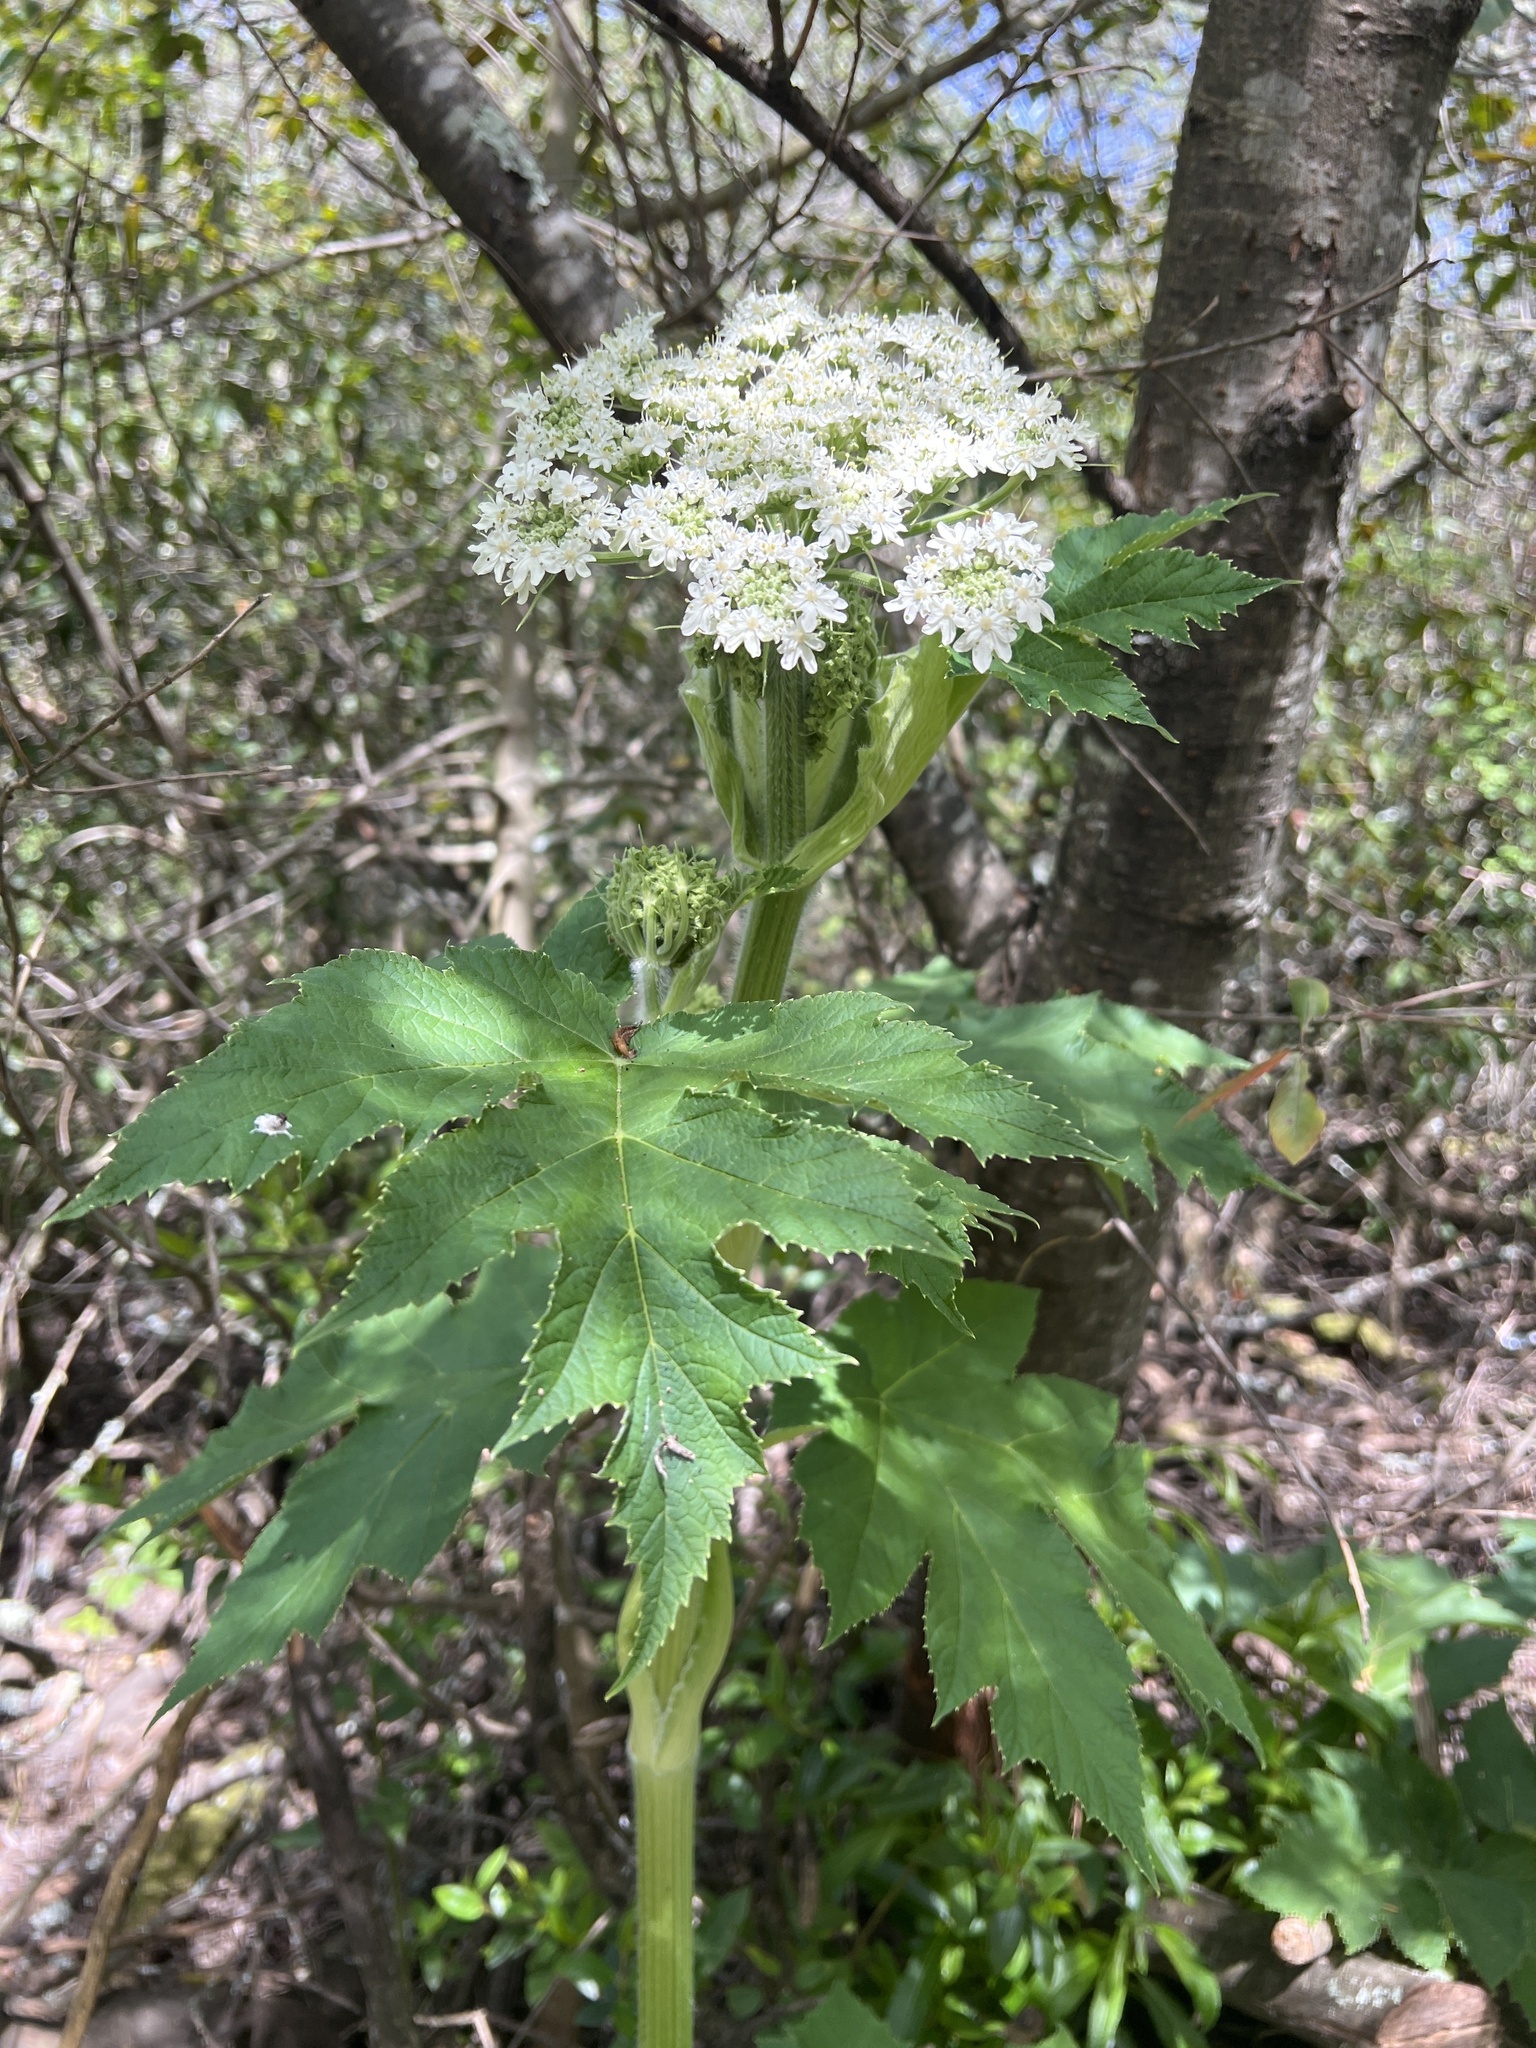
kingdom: Plantae
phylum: Tracheophyta
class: Magnoliopsida
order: Apiales
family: Apiaceae
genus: Heracleum
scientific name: Heracleum maximum
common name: American cow parsnip
